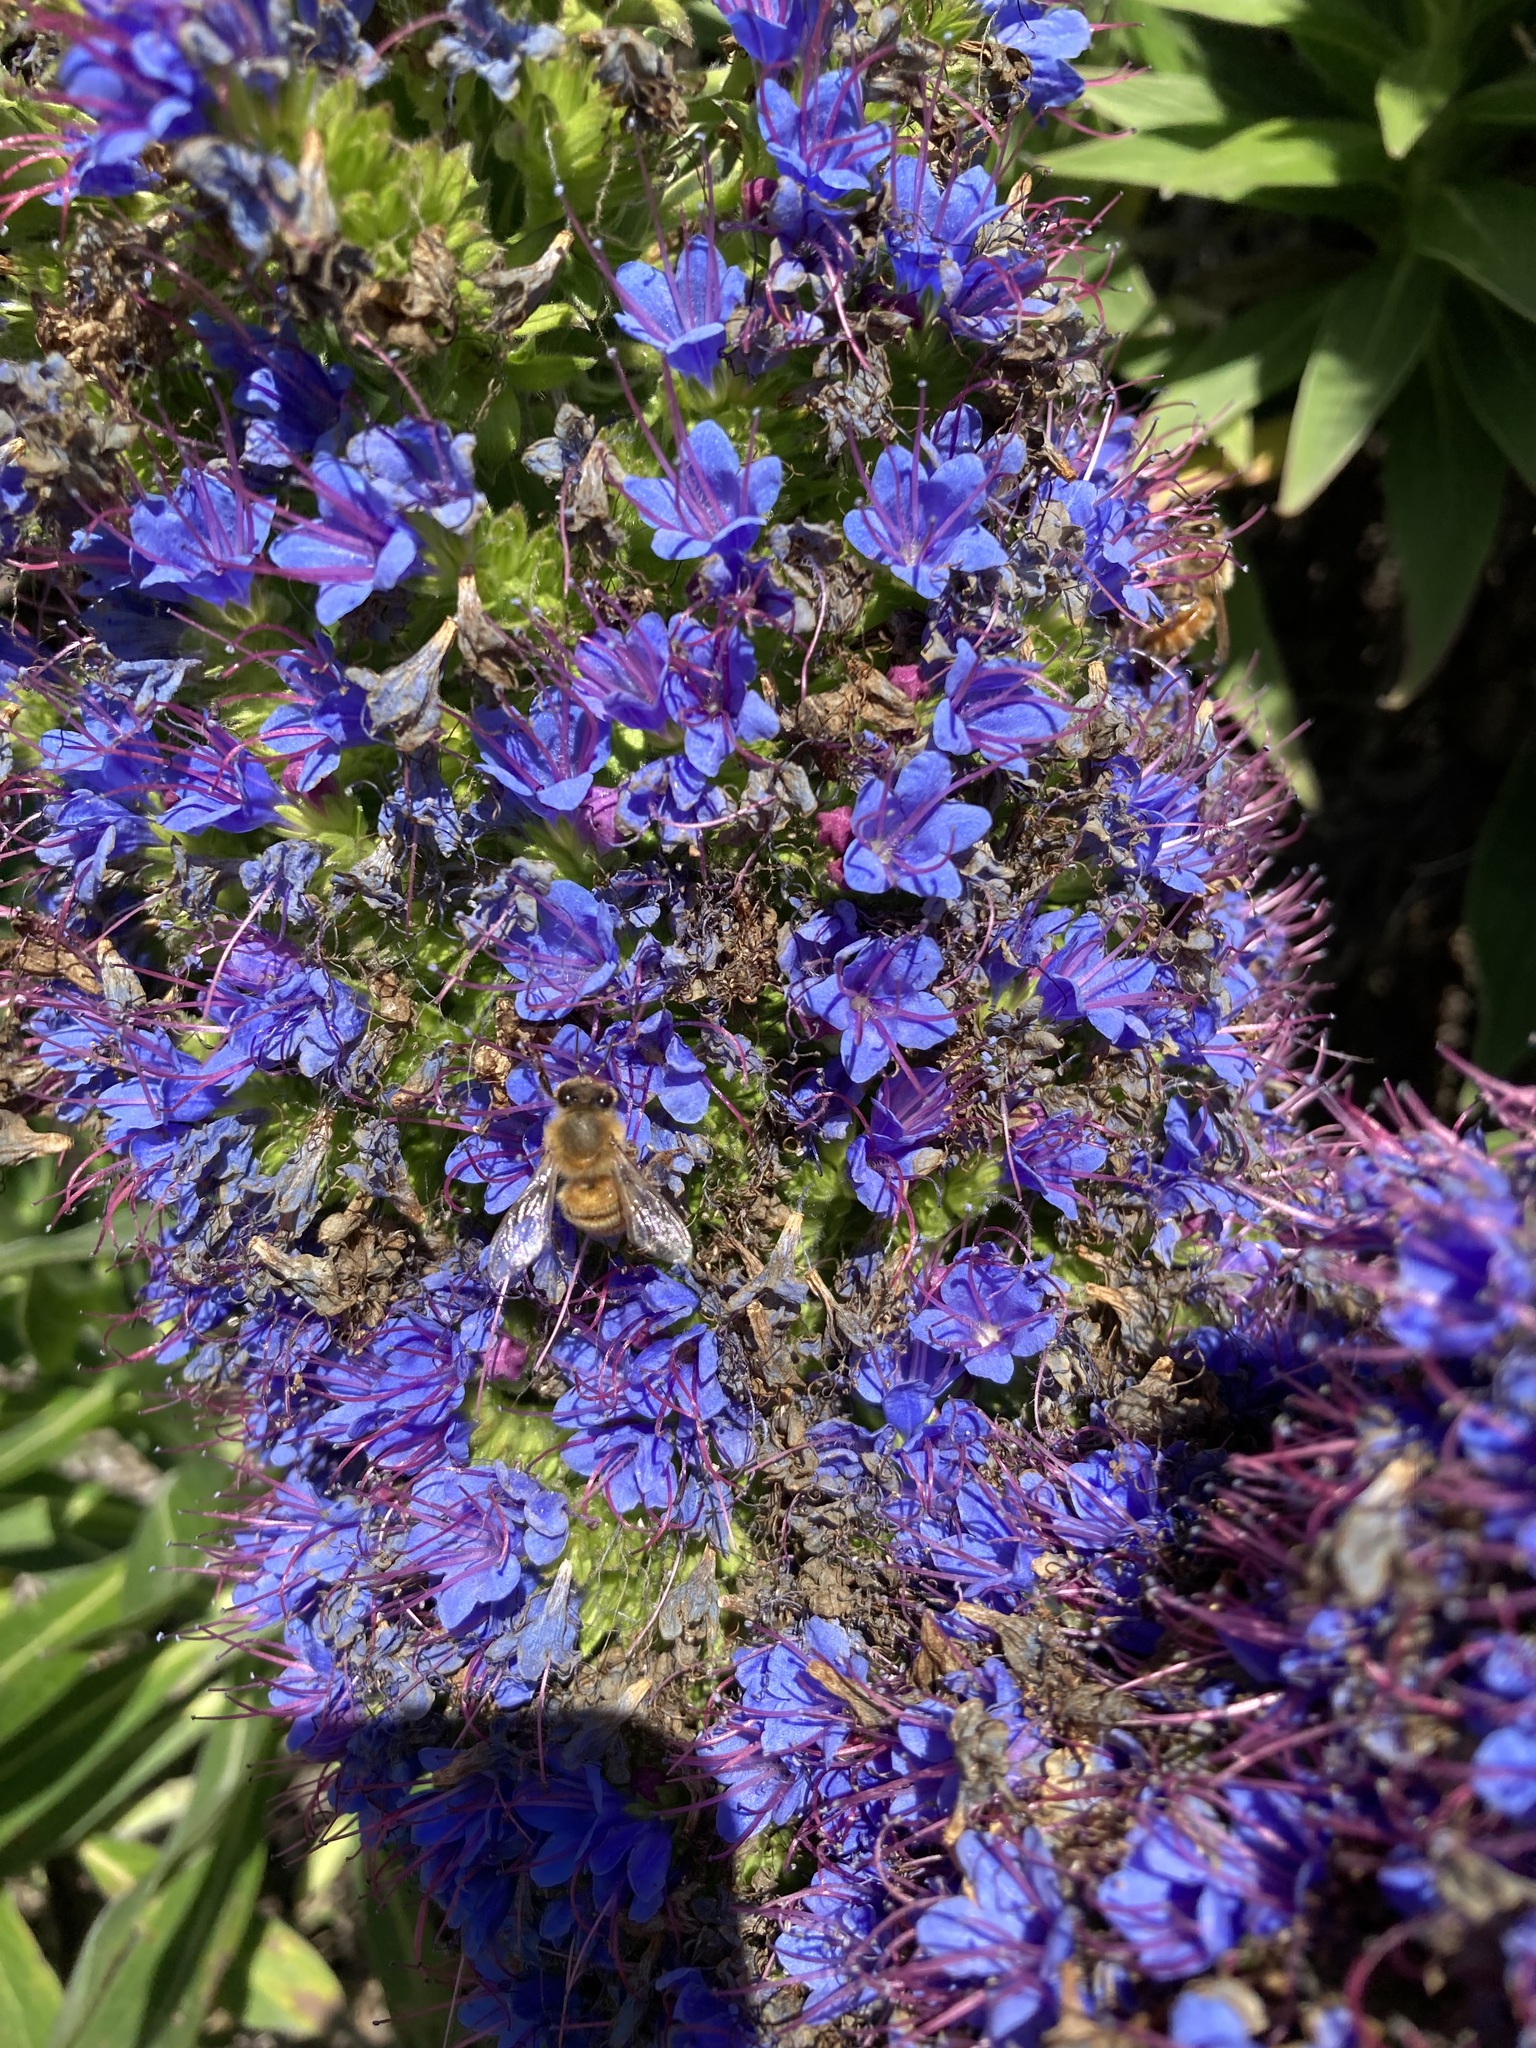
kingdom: Animalia
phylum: Arthropoda
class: Insecta
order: Hymenoptera
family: Apidae
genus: Apis
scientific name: Apis mellifera
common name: Honey bee
